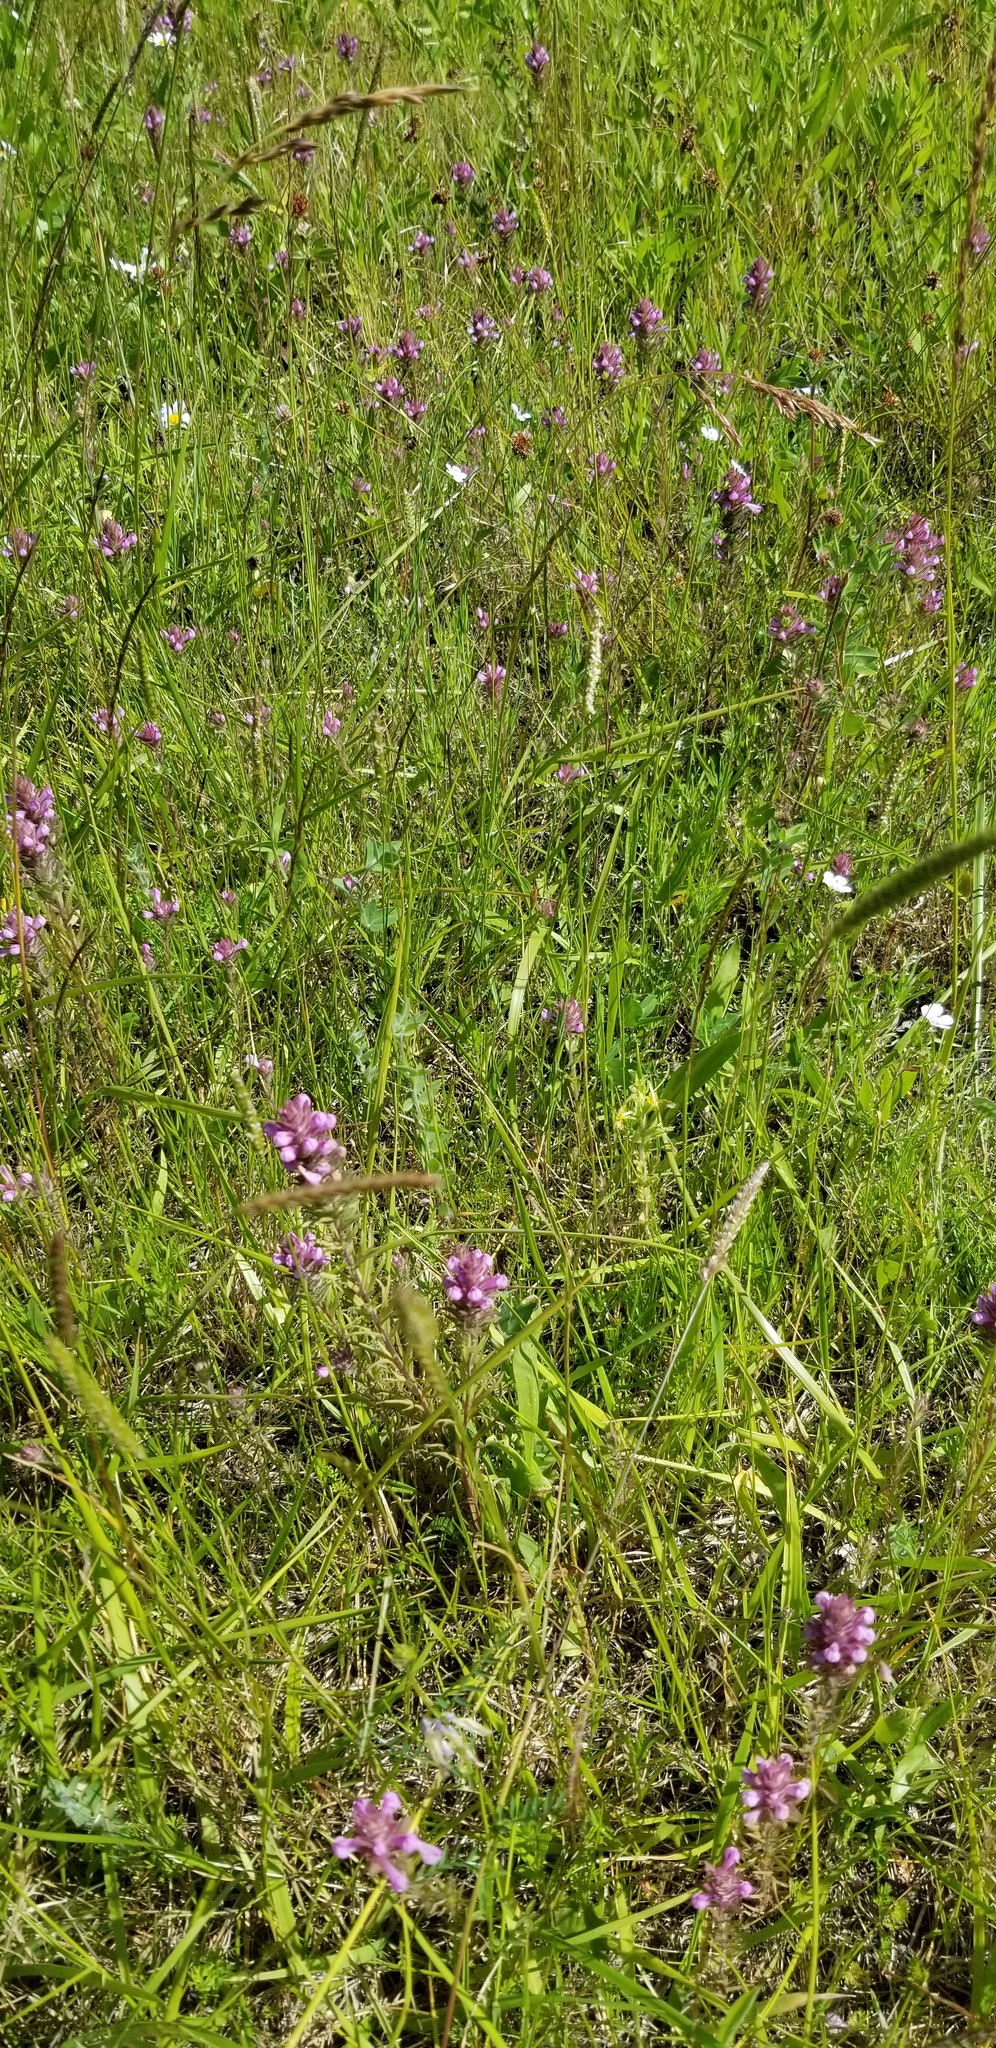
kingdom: Plantae
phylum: Tracheophyta
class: Magnoliopsida
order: Lamiales
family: Orobanchaceae
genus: Orthocarpus
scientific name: Orthocarpus bracteosus
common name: Rosy owl's-clover
